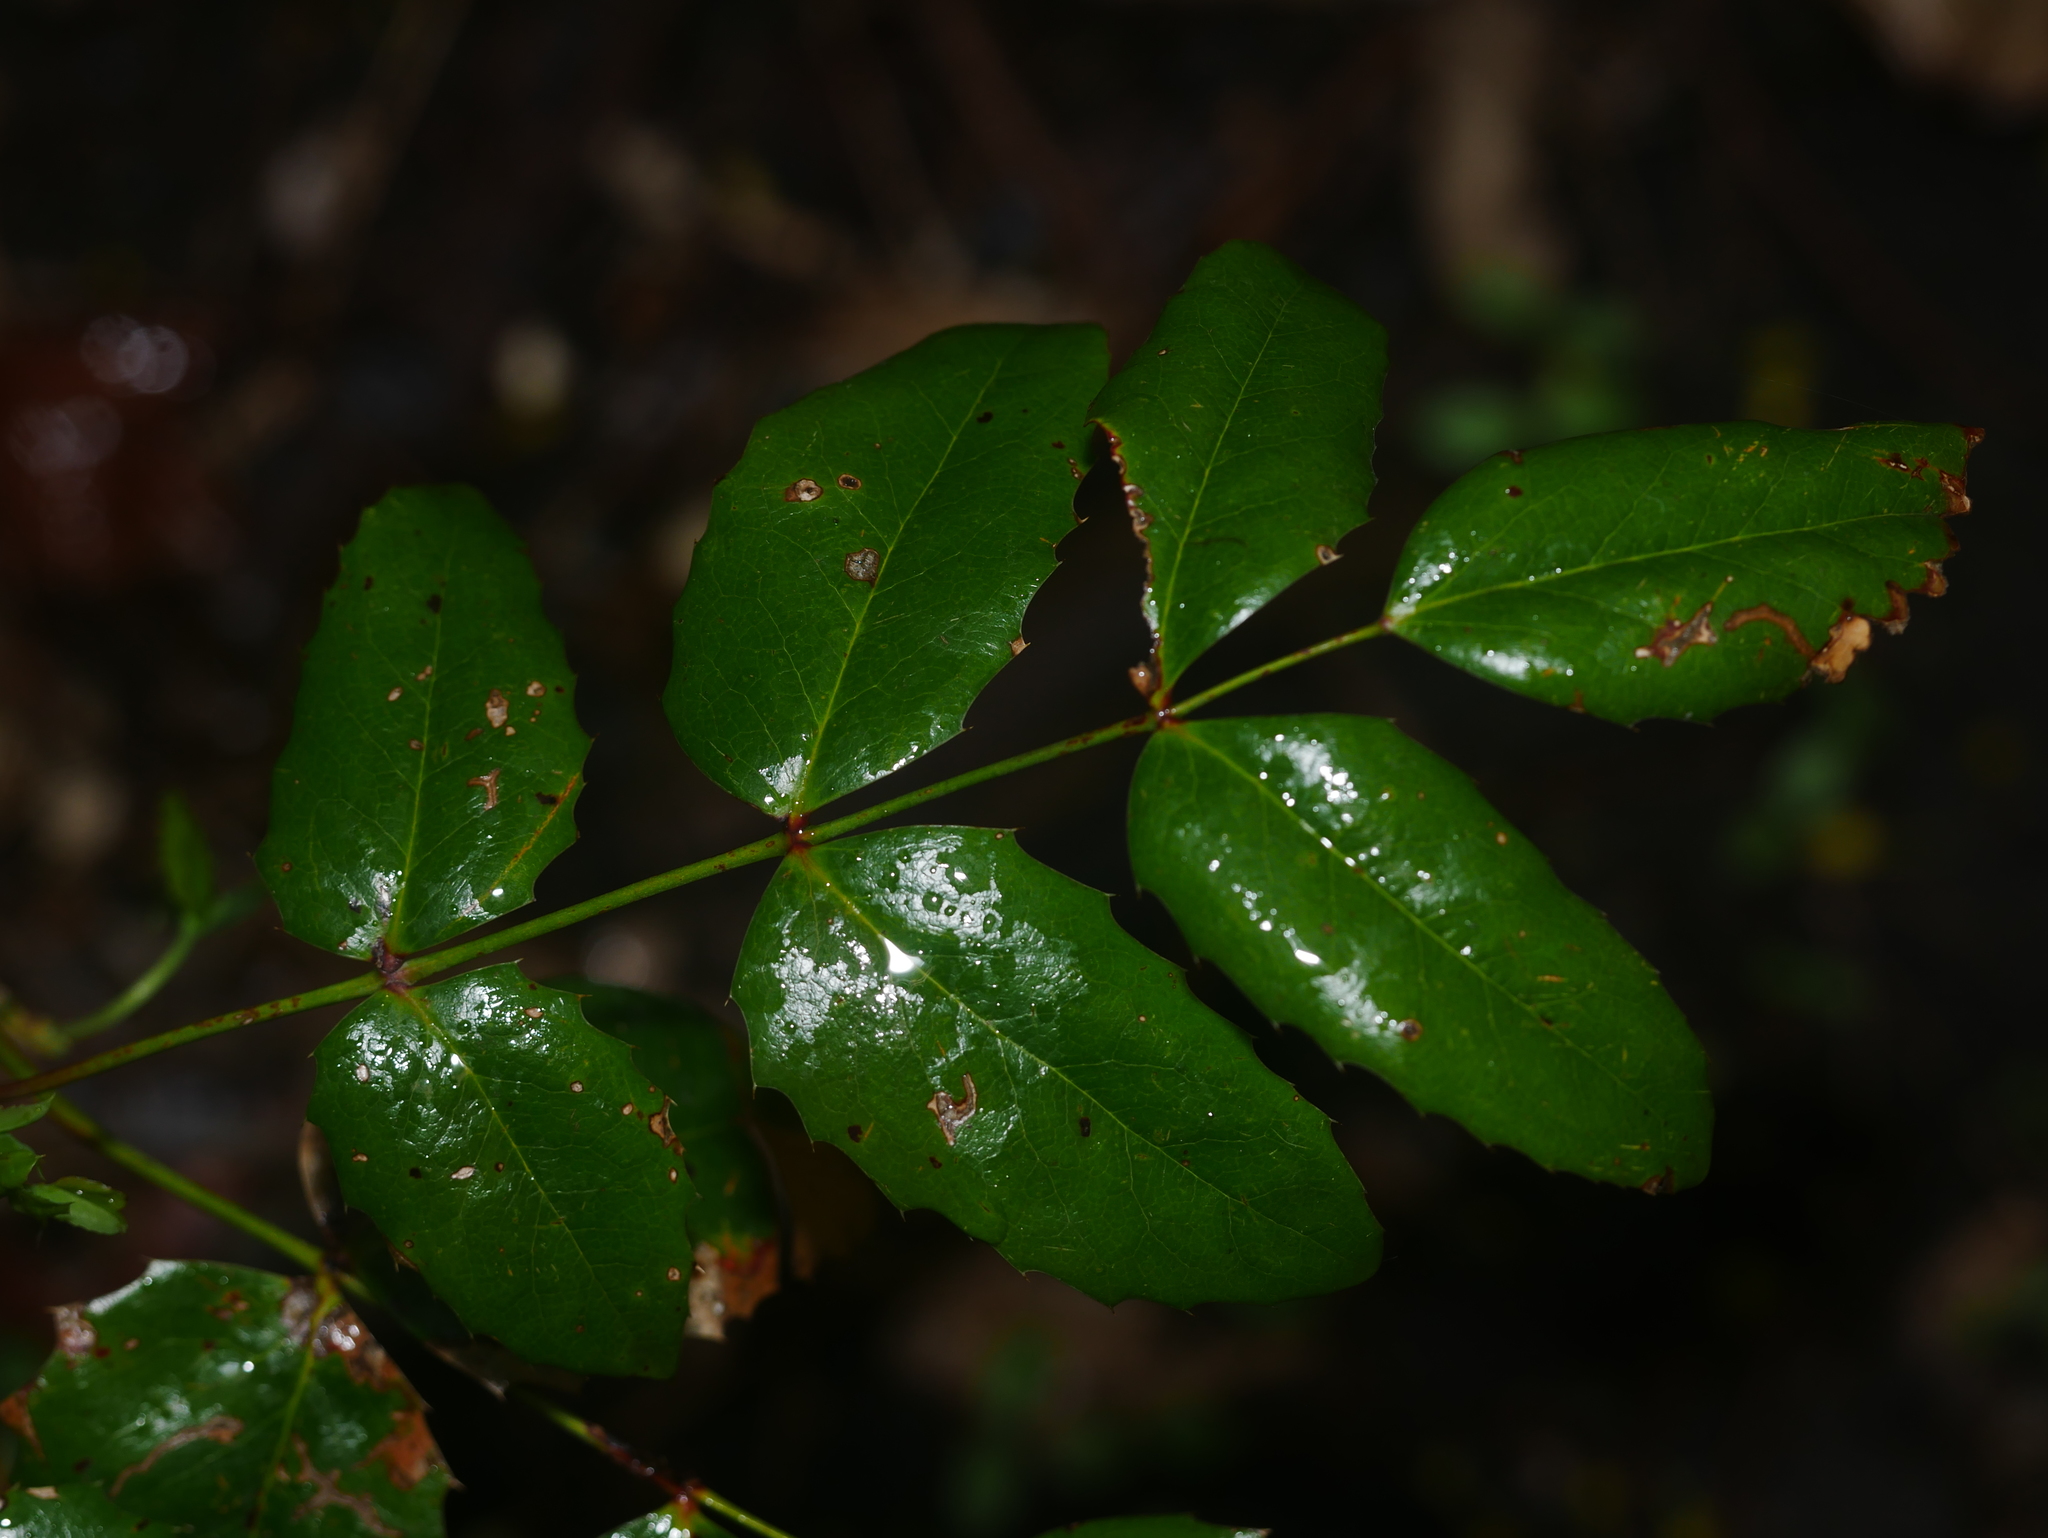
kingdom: Plantae
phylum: Tracheophyta
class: Magnoliopsida
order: Ranunculales
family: Berberidaceae
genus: Mahonia
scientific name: Mahonia aquifolium
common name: Oregon-grape
